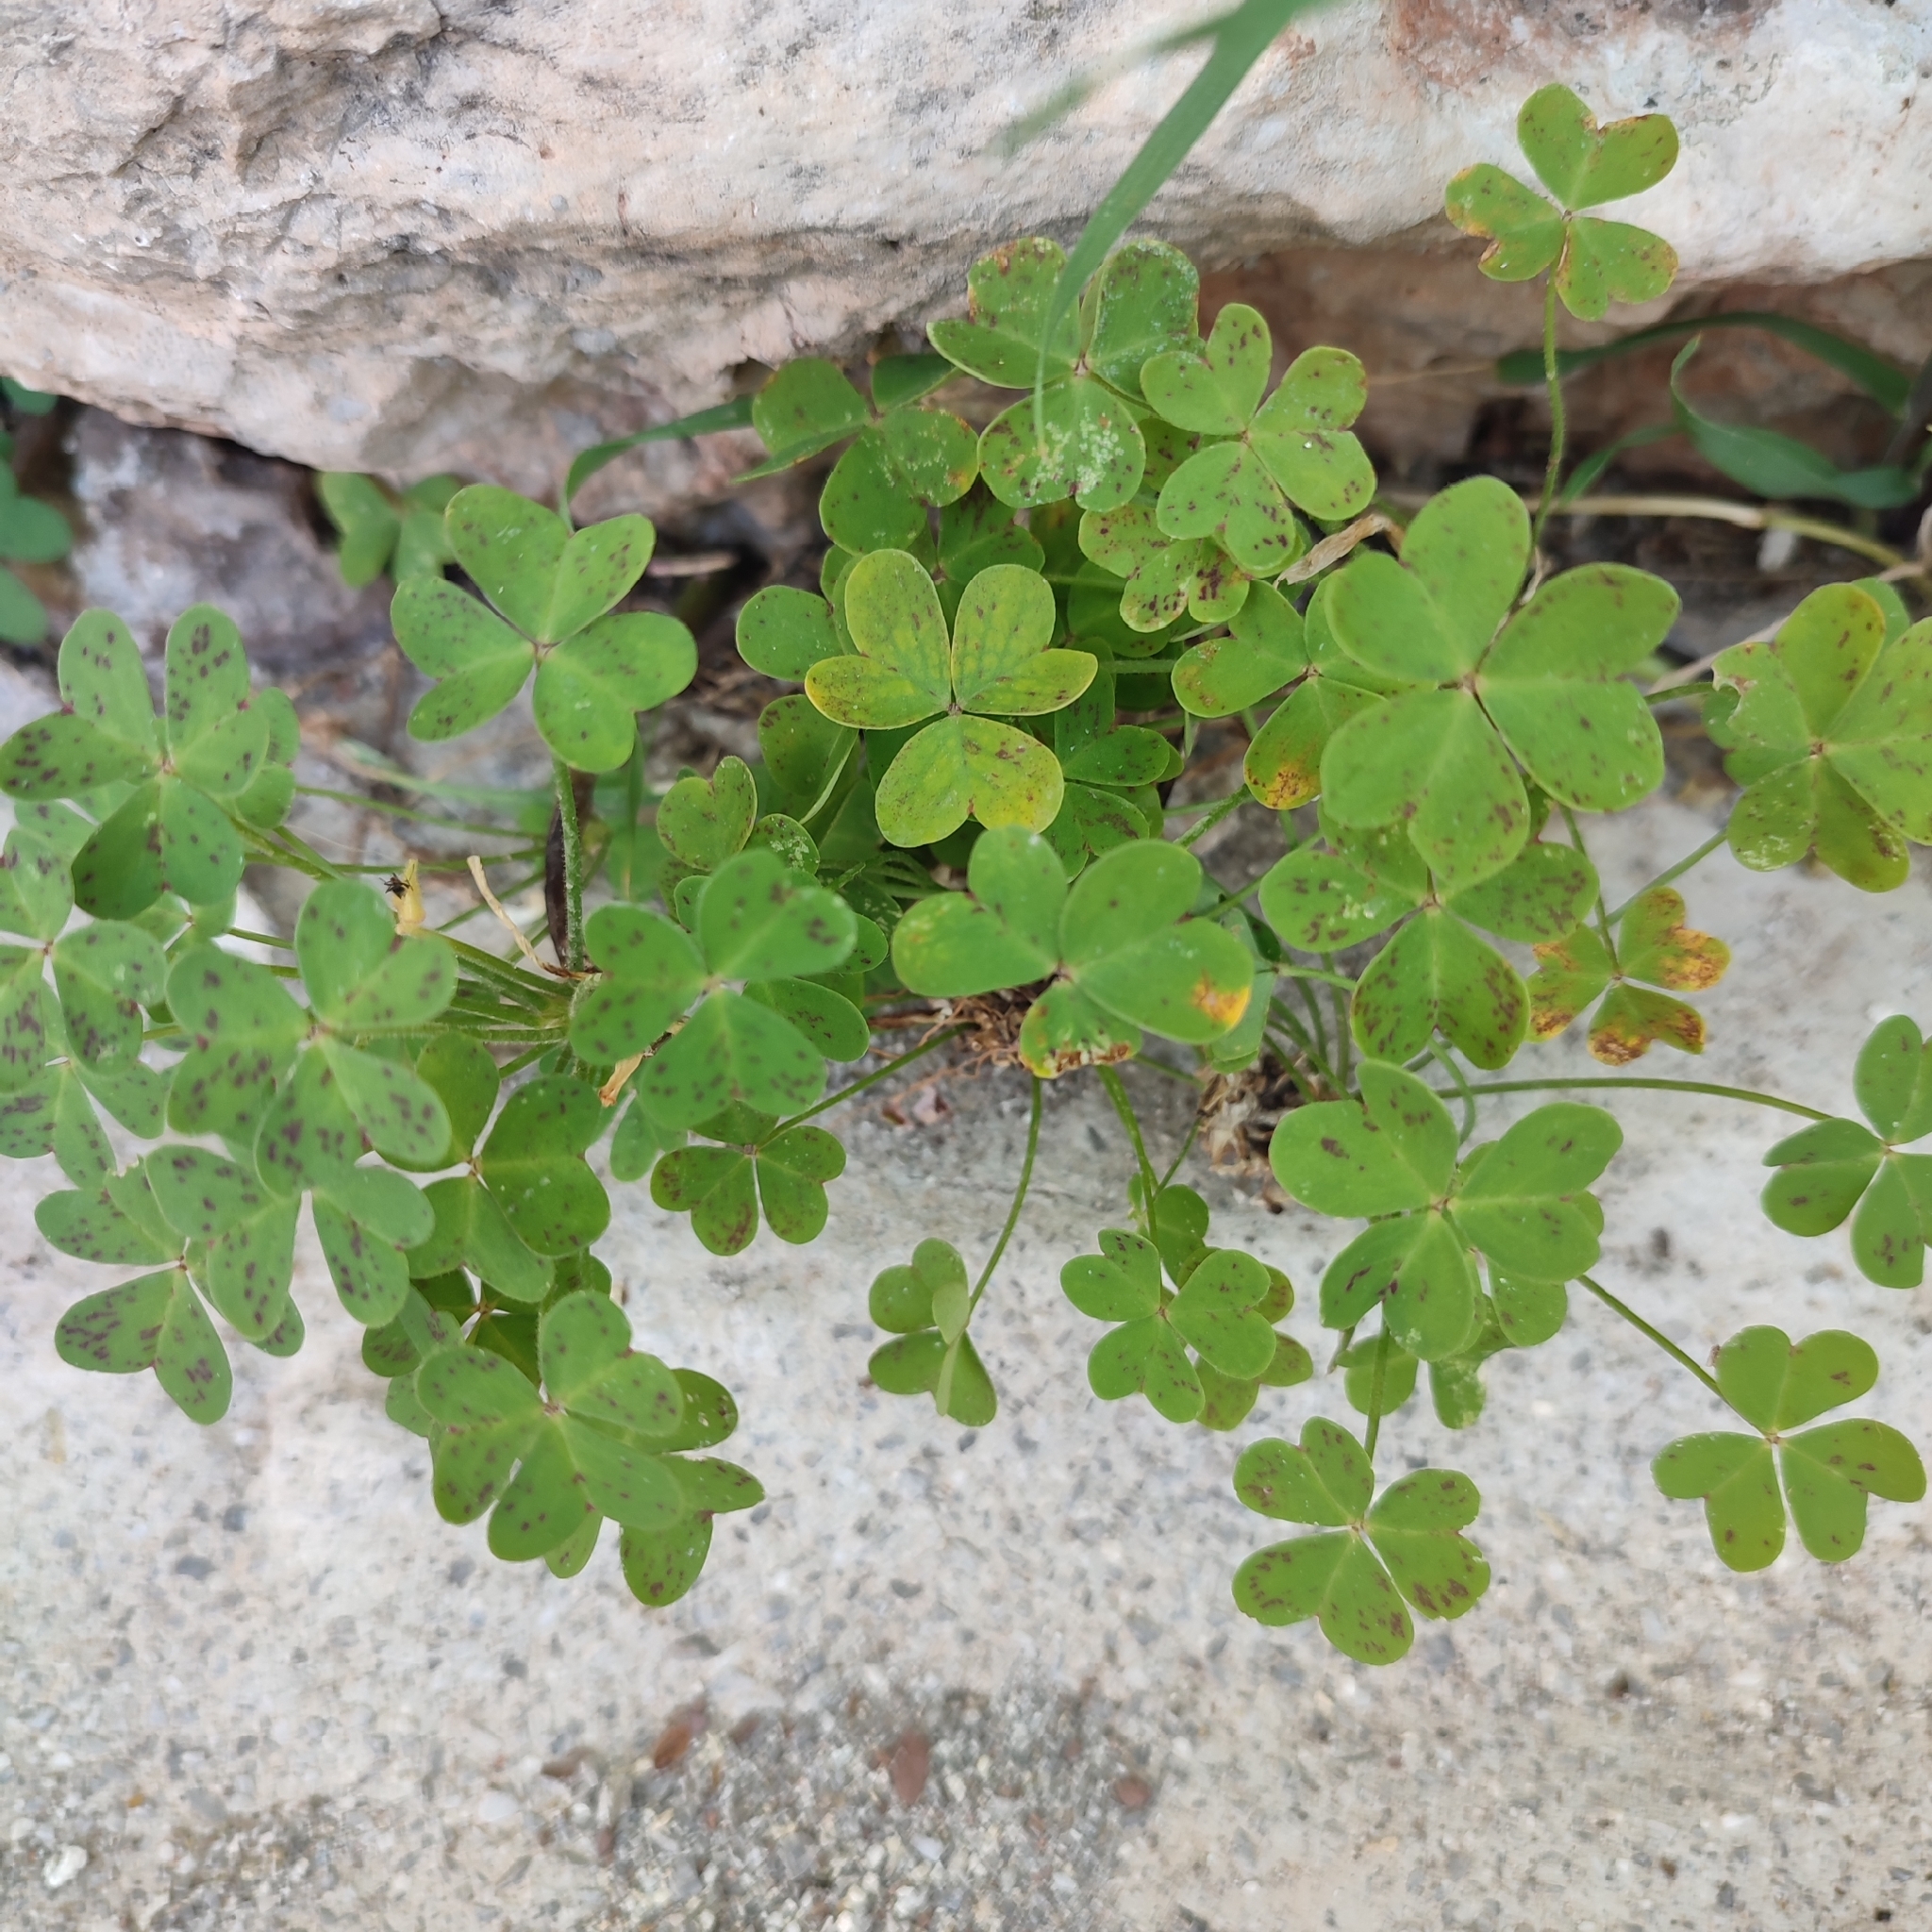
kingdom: Plantae
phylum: Tracheophyta
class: Magnoliopsida
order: Oxalidales
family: Oxalidaceae
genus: Oxalis
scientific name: Oxalis pes-caprae
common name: Bermuda-buttercup
